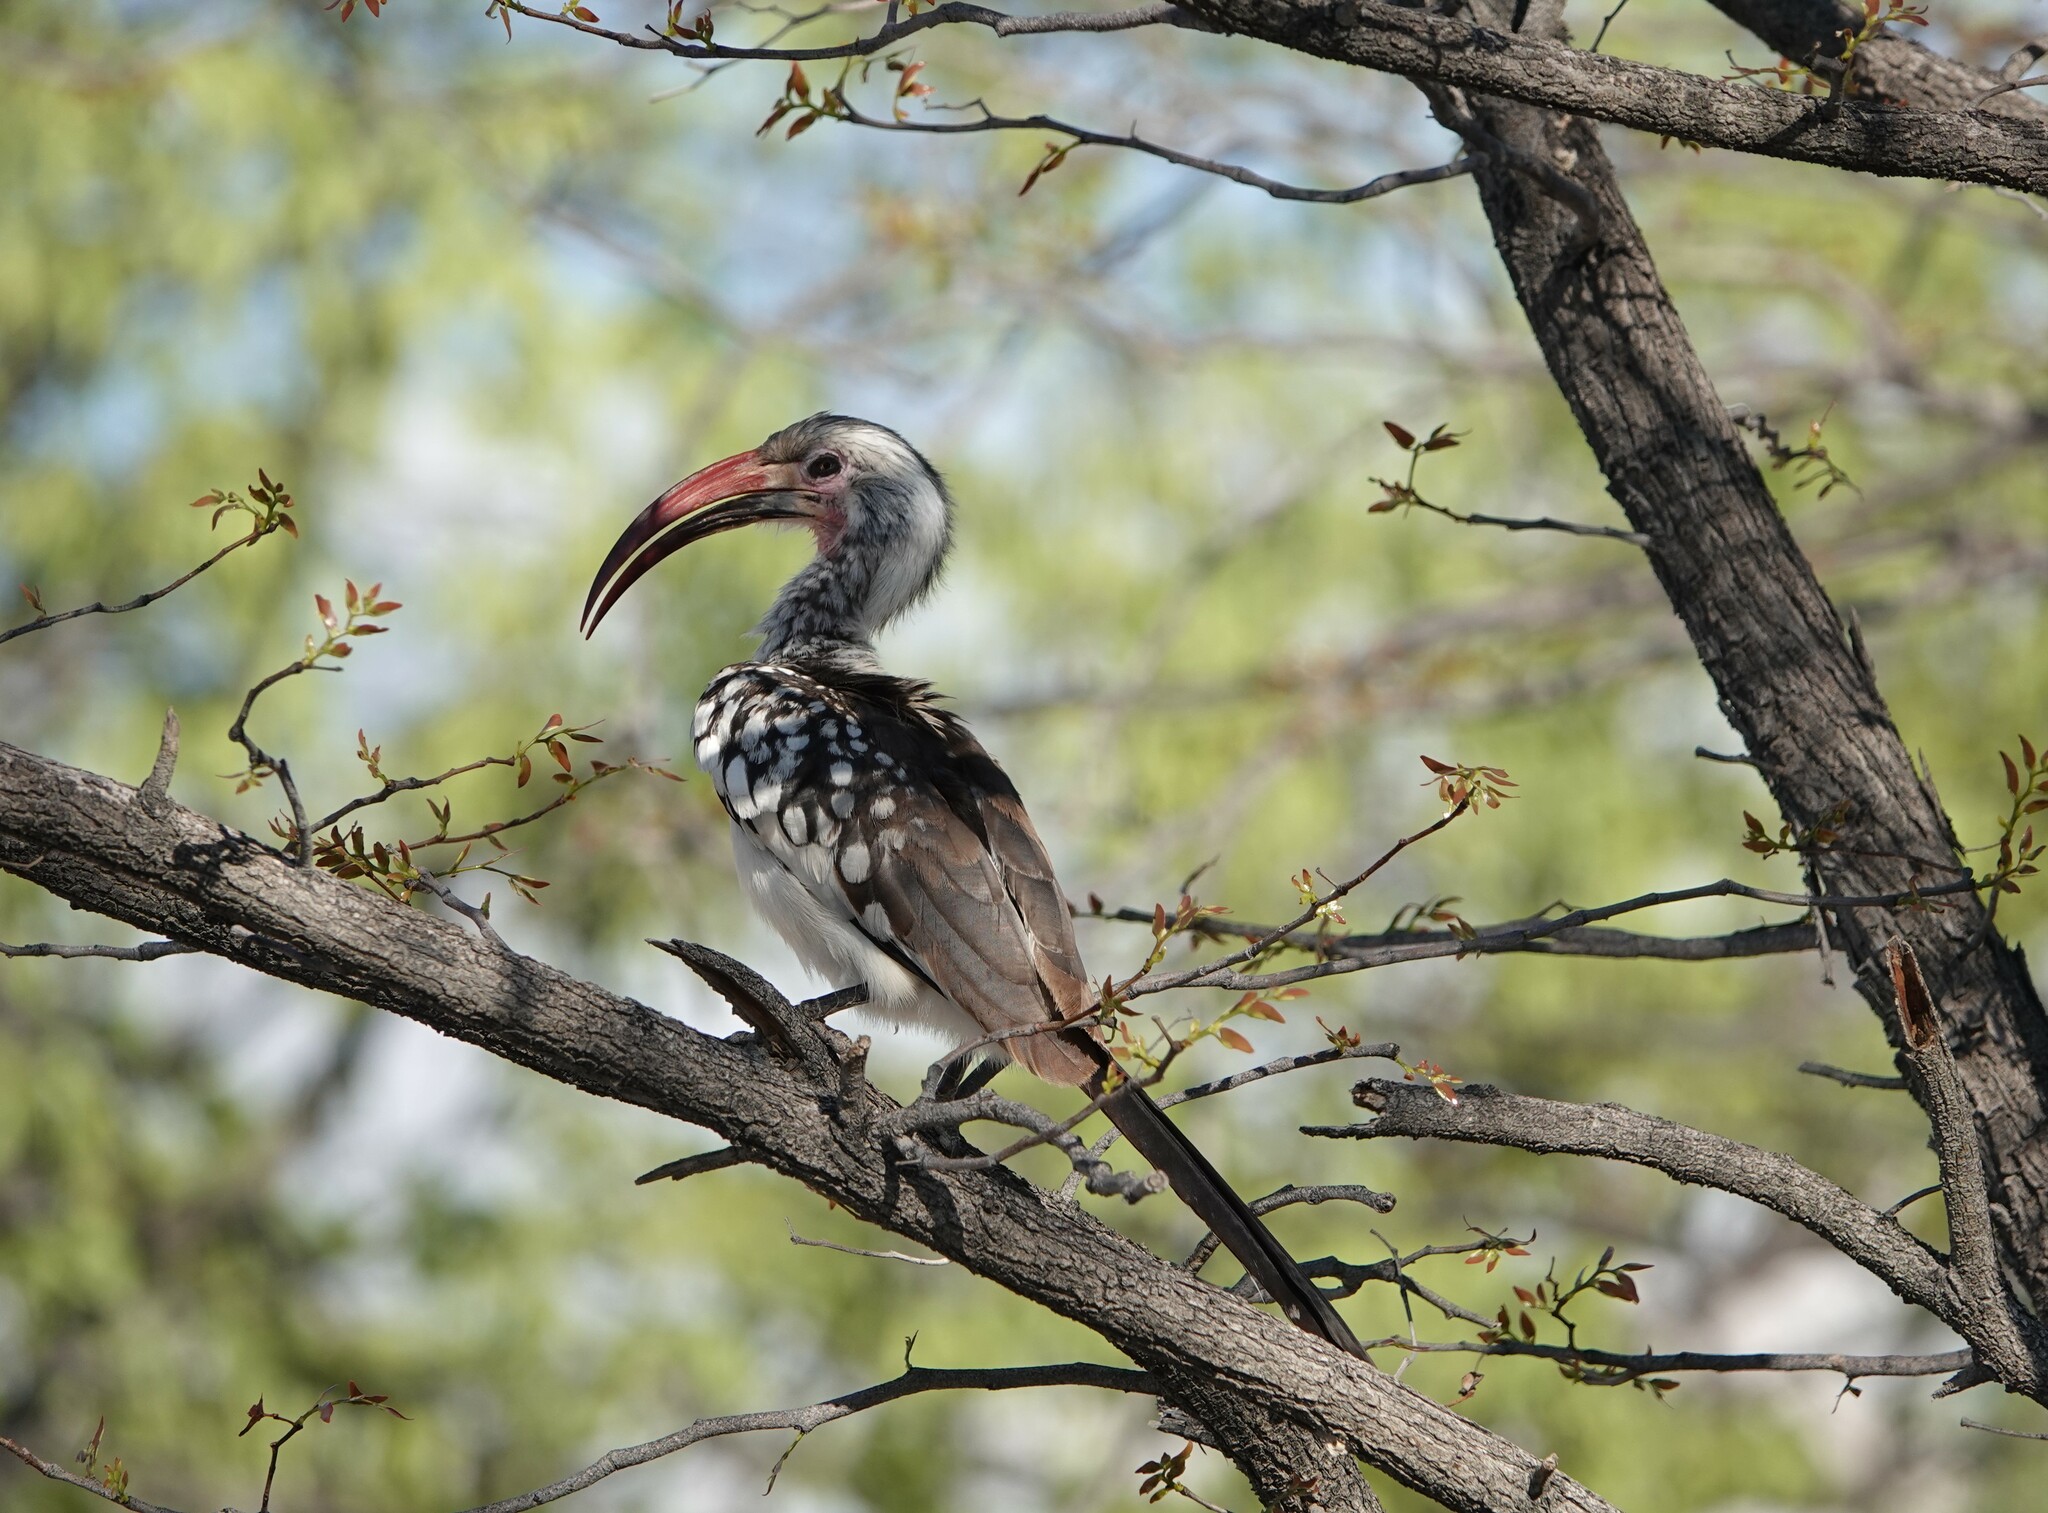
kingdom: Animalia
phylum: Chordata
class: Aves
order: Bucerotiformes
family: Bucerotidae
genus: Tockus
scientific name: Tockus rufirostris
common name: Southern red-billed hornbill
